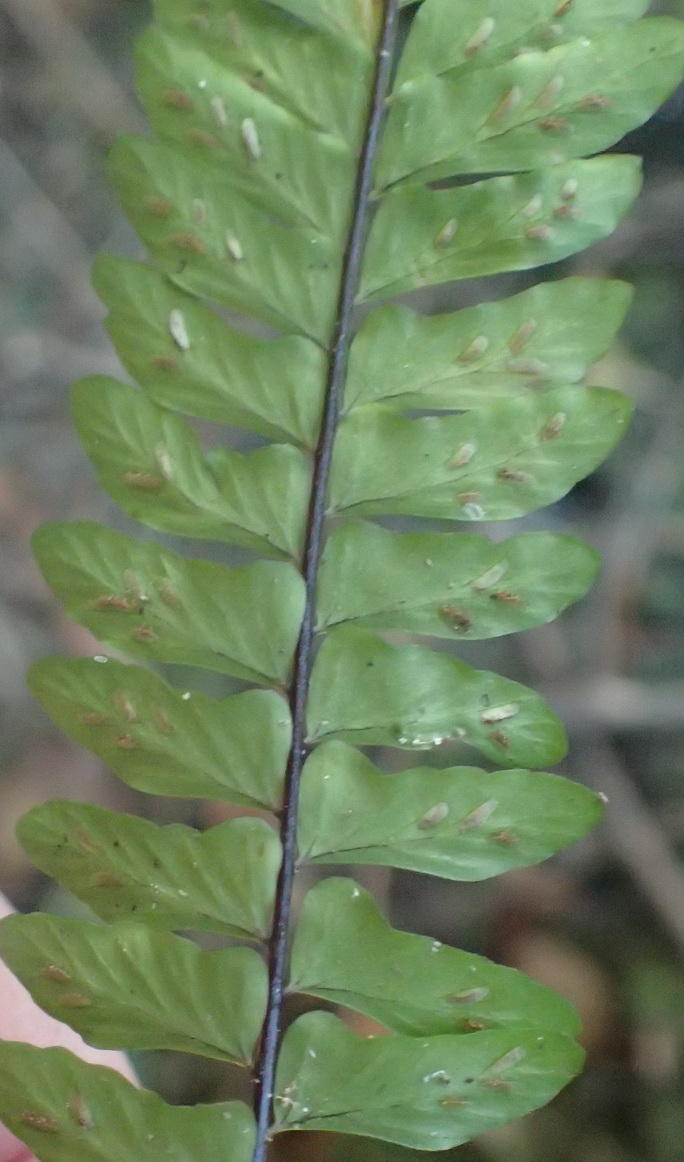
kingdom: Plantae
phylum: Tracheophyta
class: Polypodiopsida
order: Polypodiales
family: Aspleniaceae
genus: Asplenium
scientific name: Asplenium lunulatum
